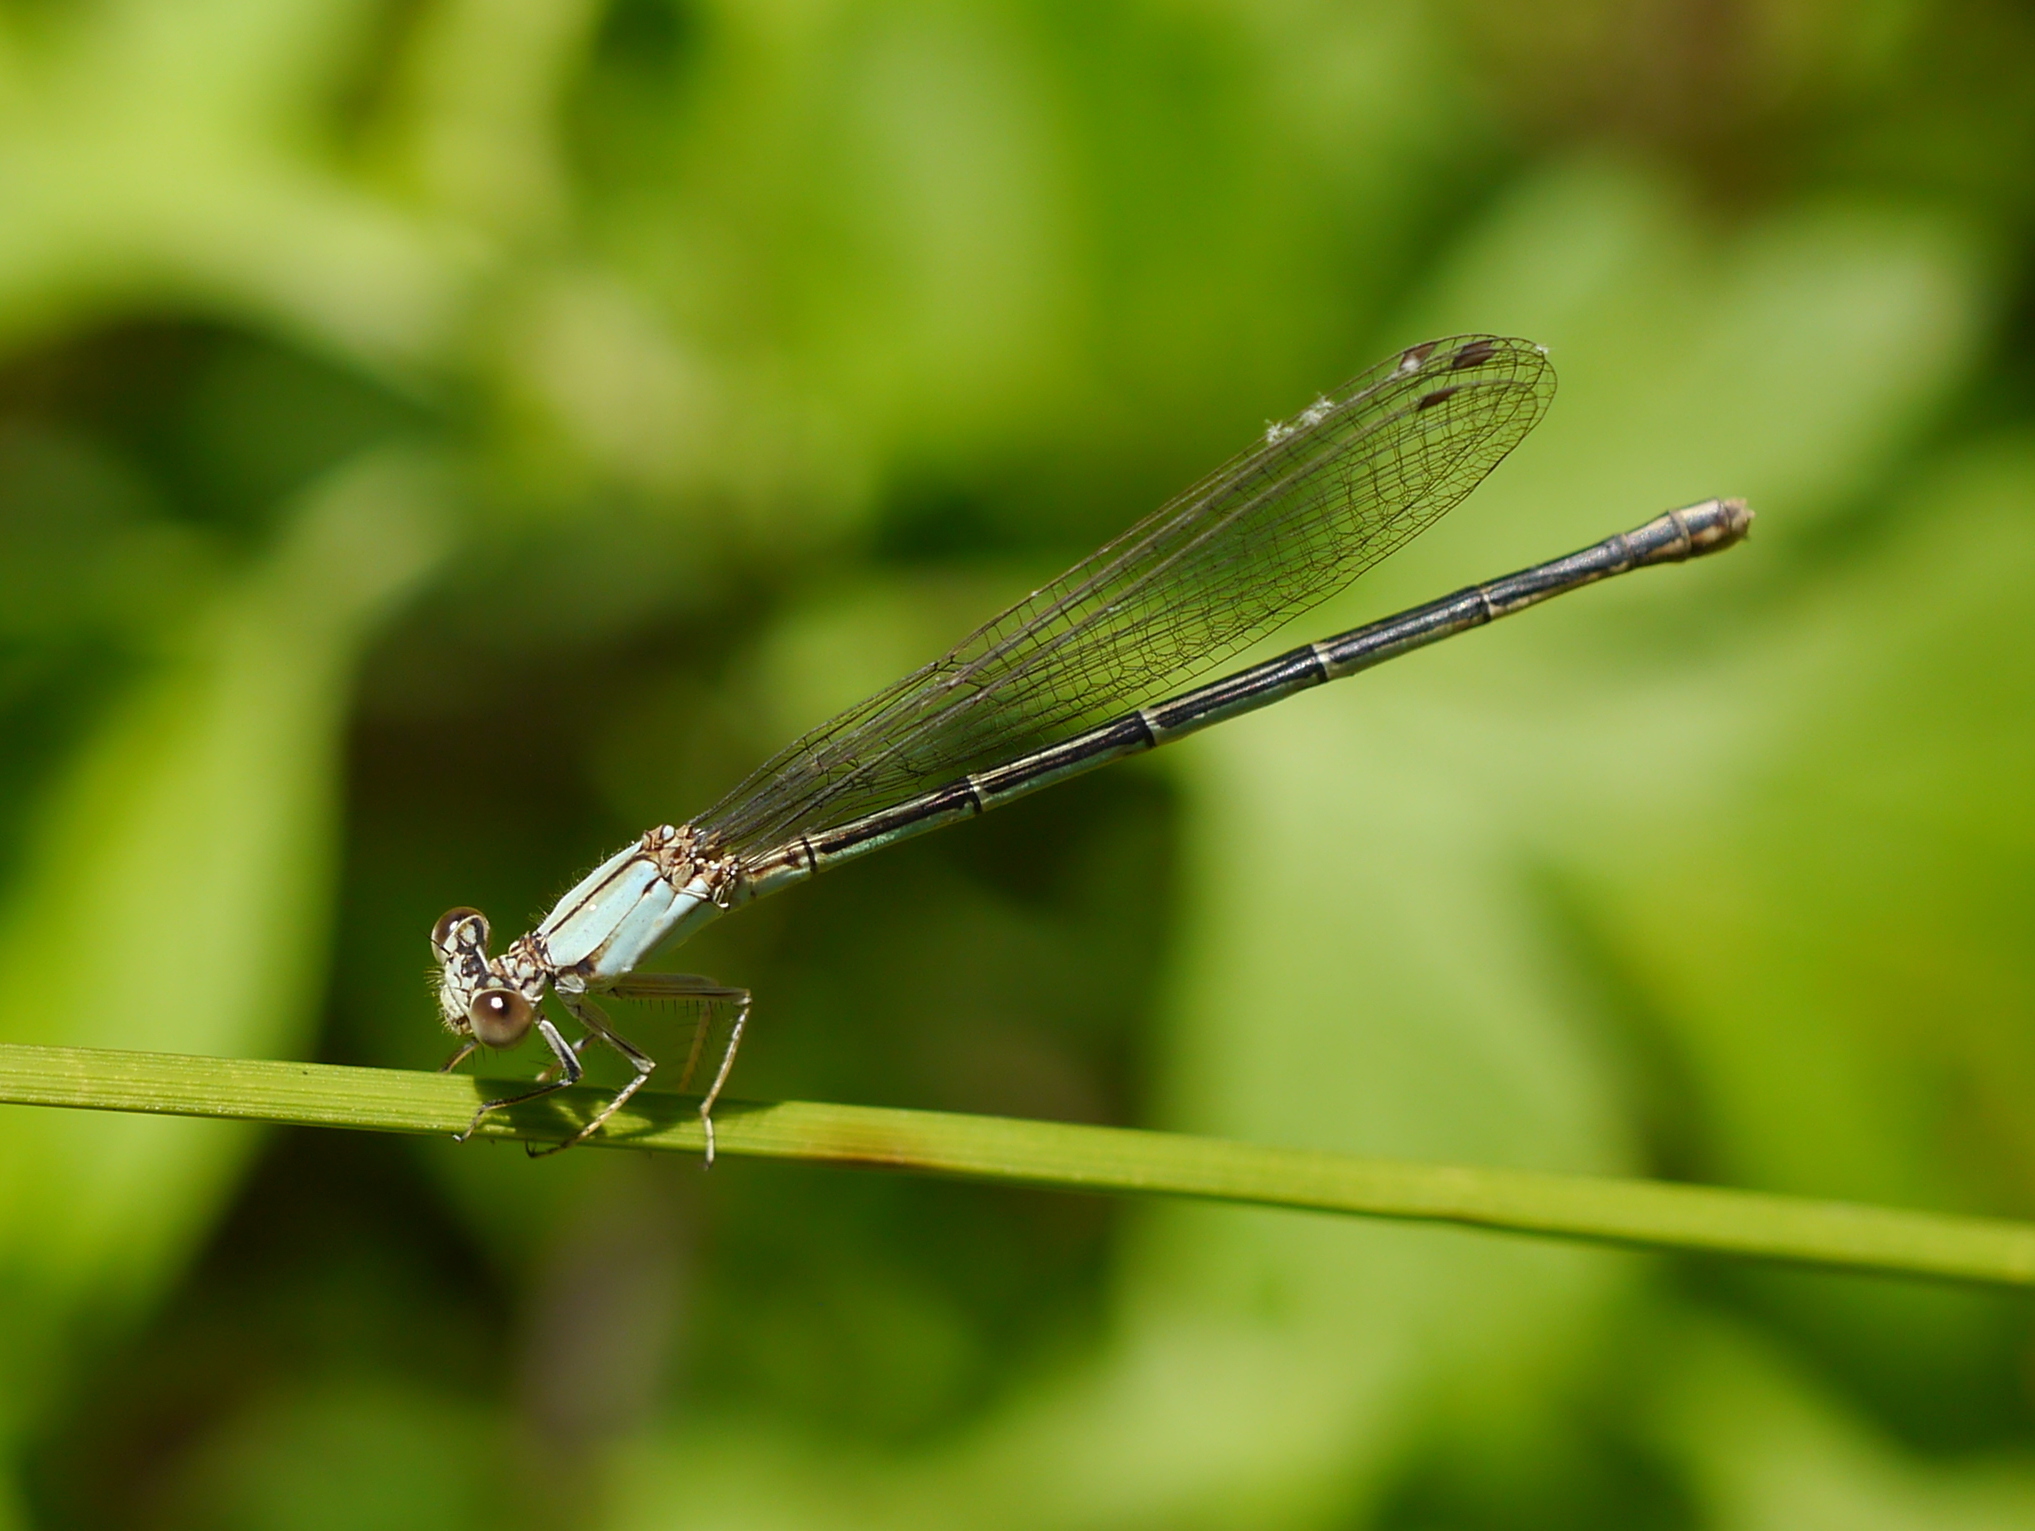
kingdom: Animalia
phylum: Arthropoda
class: Insecta
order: Odonata
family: Coenagrionidae
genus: Argia
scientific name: Argia apicalis
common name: Blue-fronted dancer
